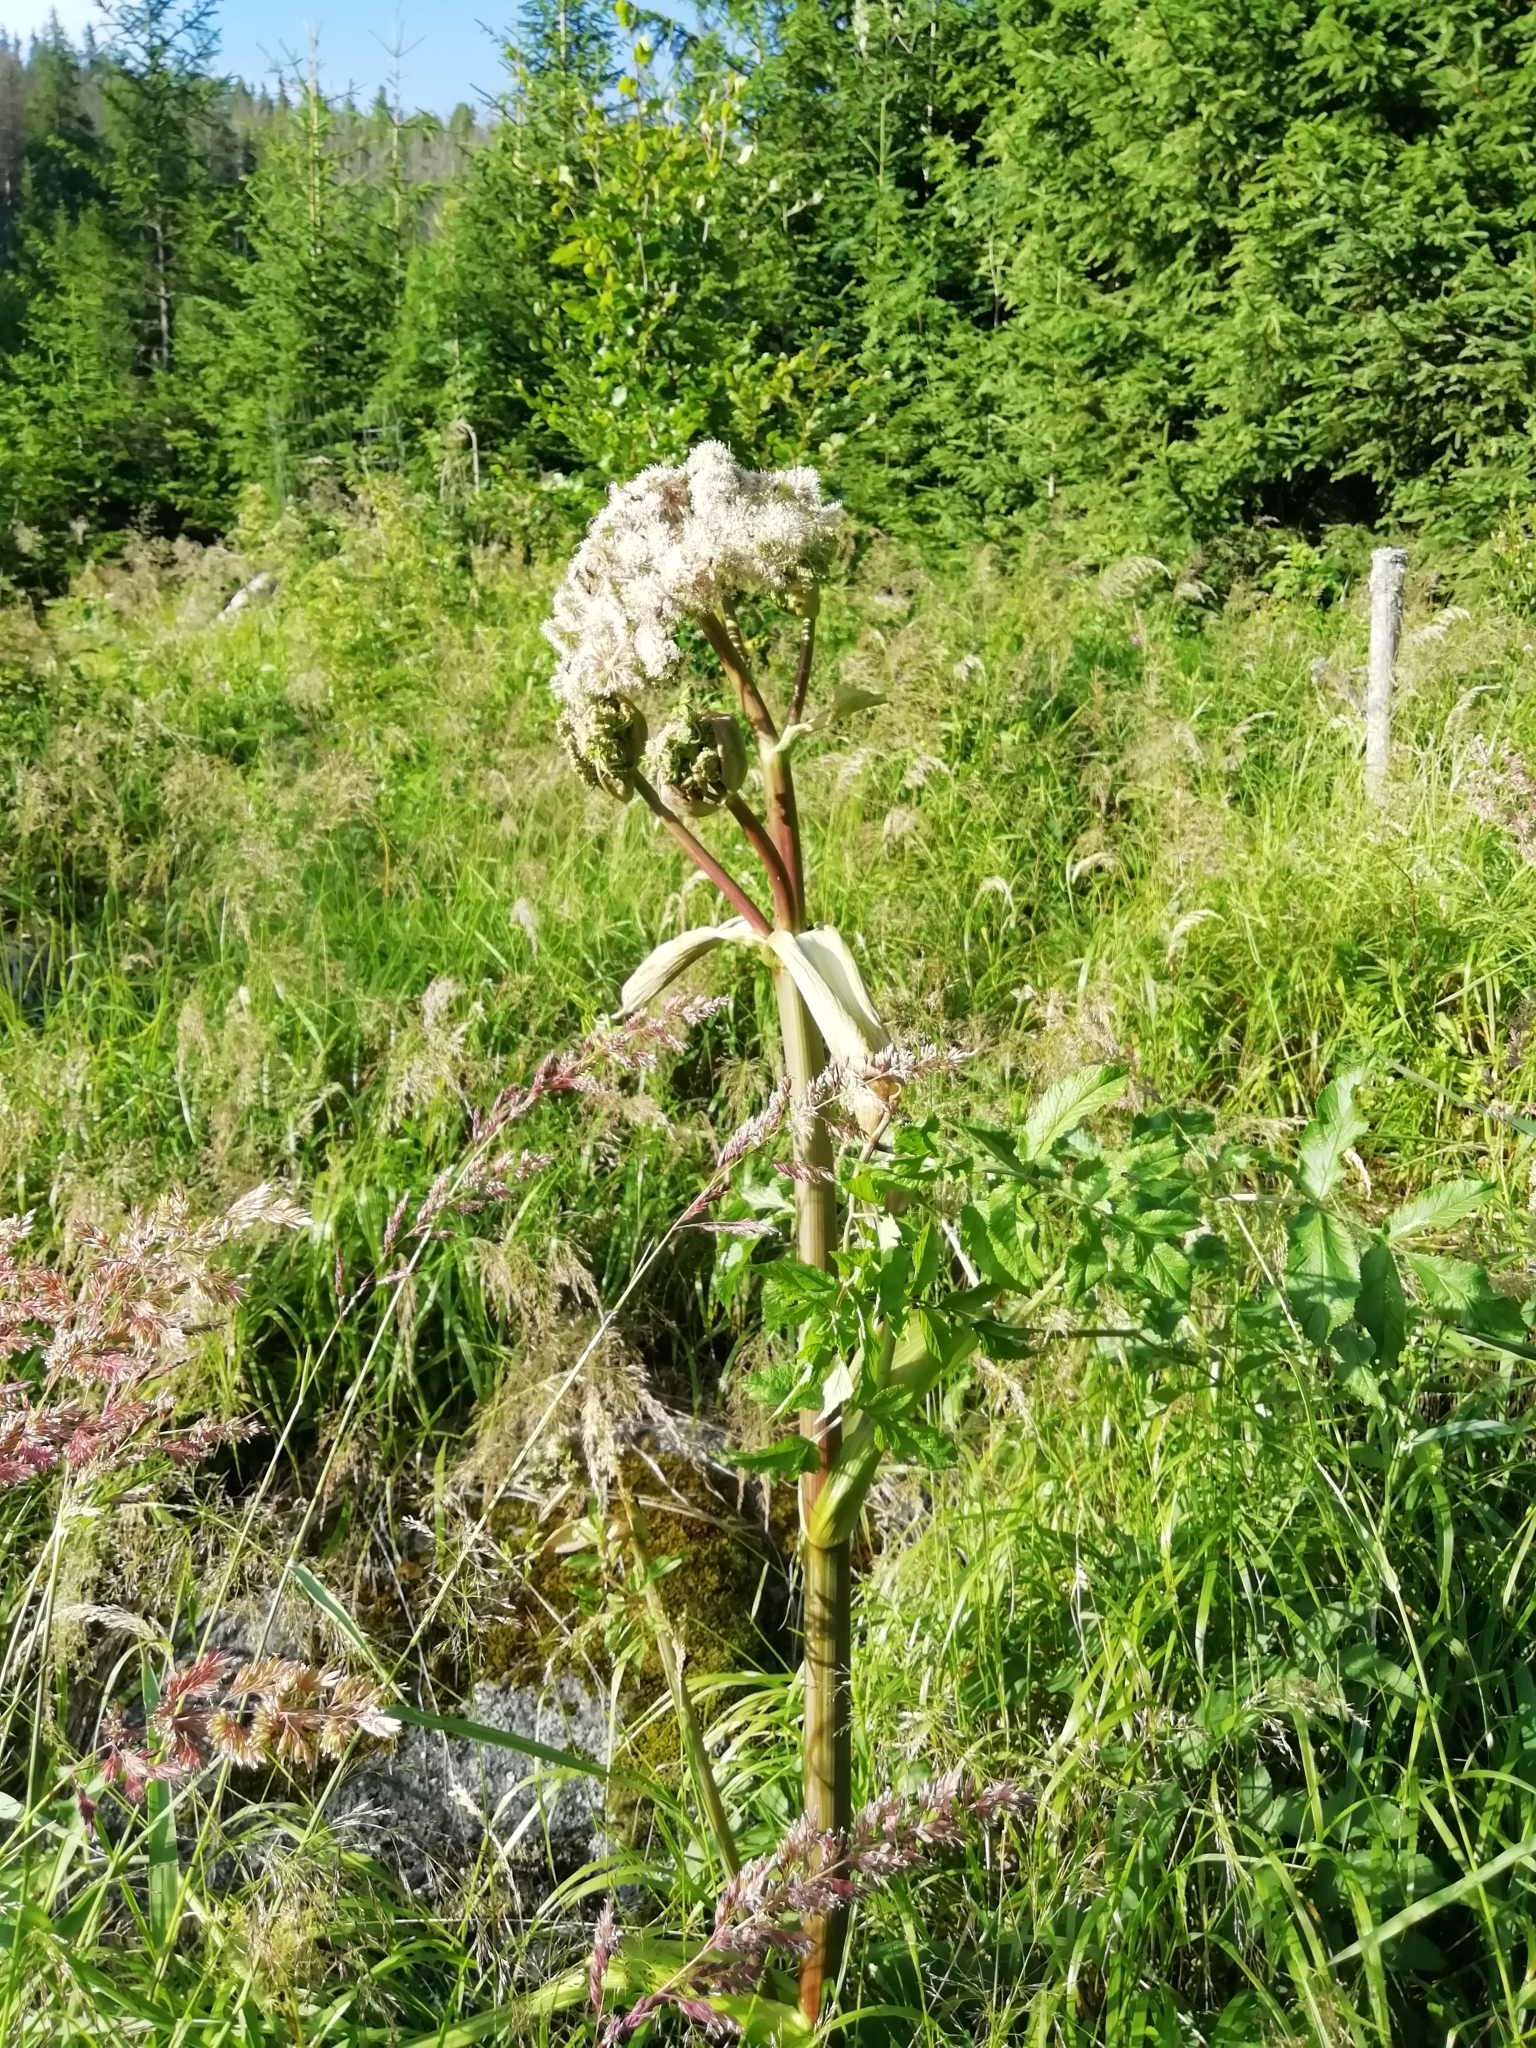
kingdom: Plantae
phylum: Tracheophyta
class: Magnoliopsida
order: Apiales
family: Apiaceae
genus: Angelica
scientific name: Angelica sylvestris
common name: Wild angelica
